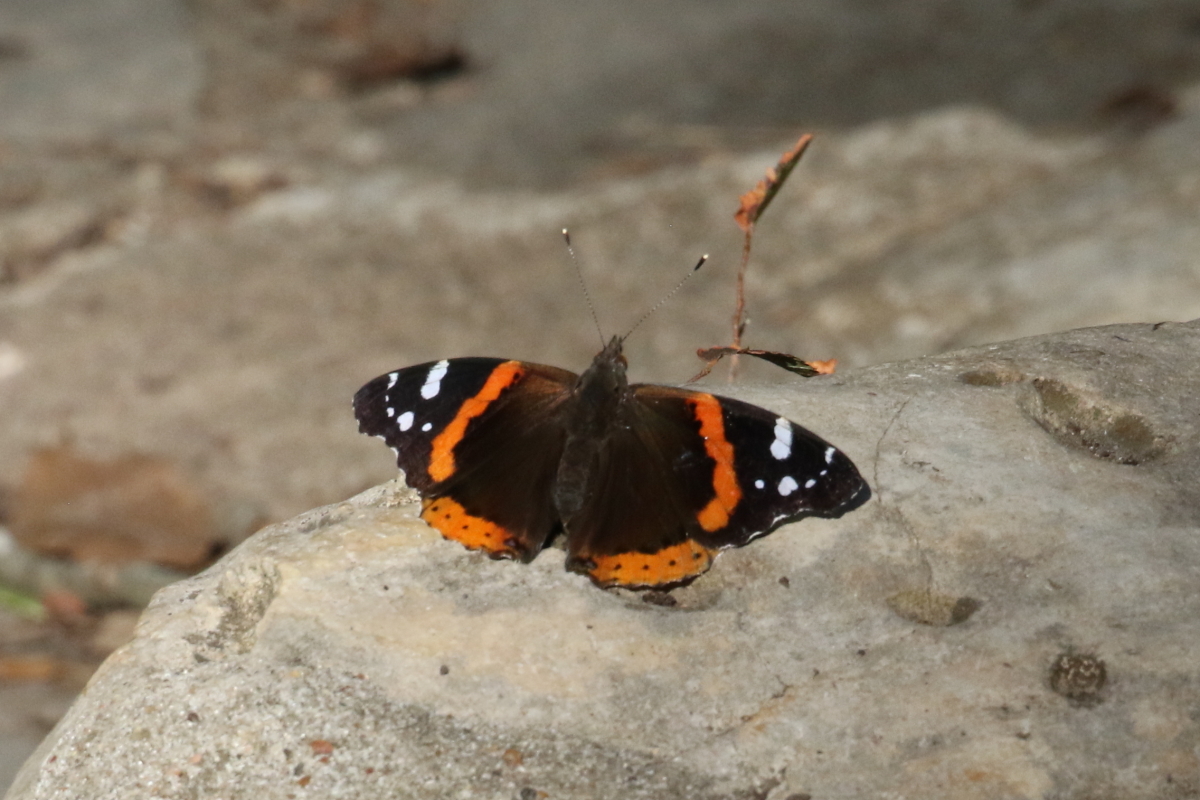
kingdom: Animalia
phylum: Arthropoda
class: Insecta
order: Lepidoptera
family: Nymphalidae
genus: Vanessa
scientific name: Vanessa atalanta
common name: Red admiral
